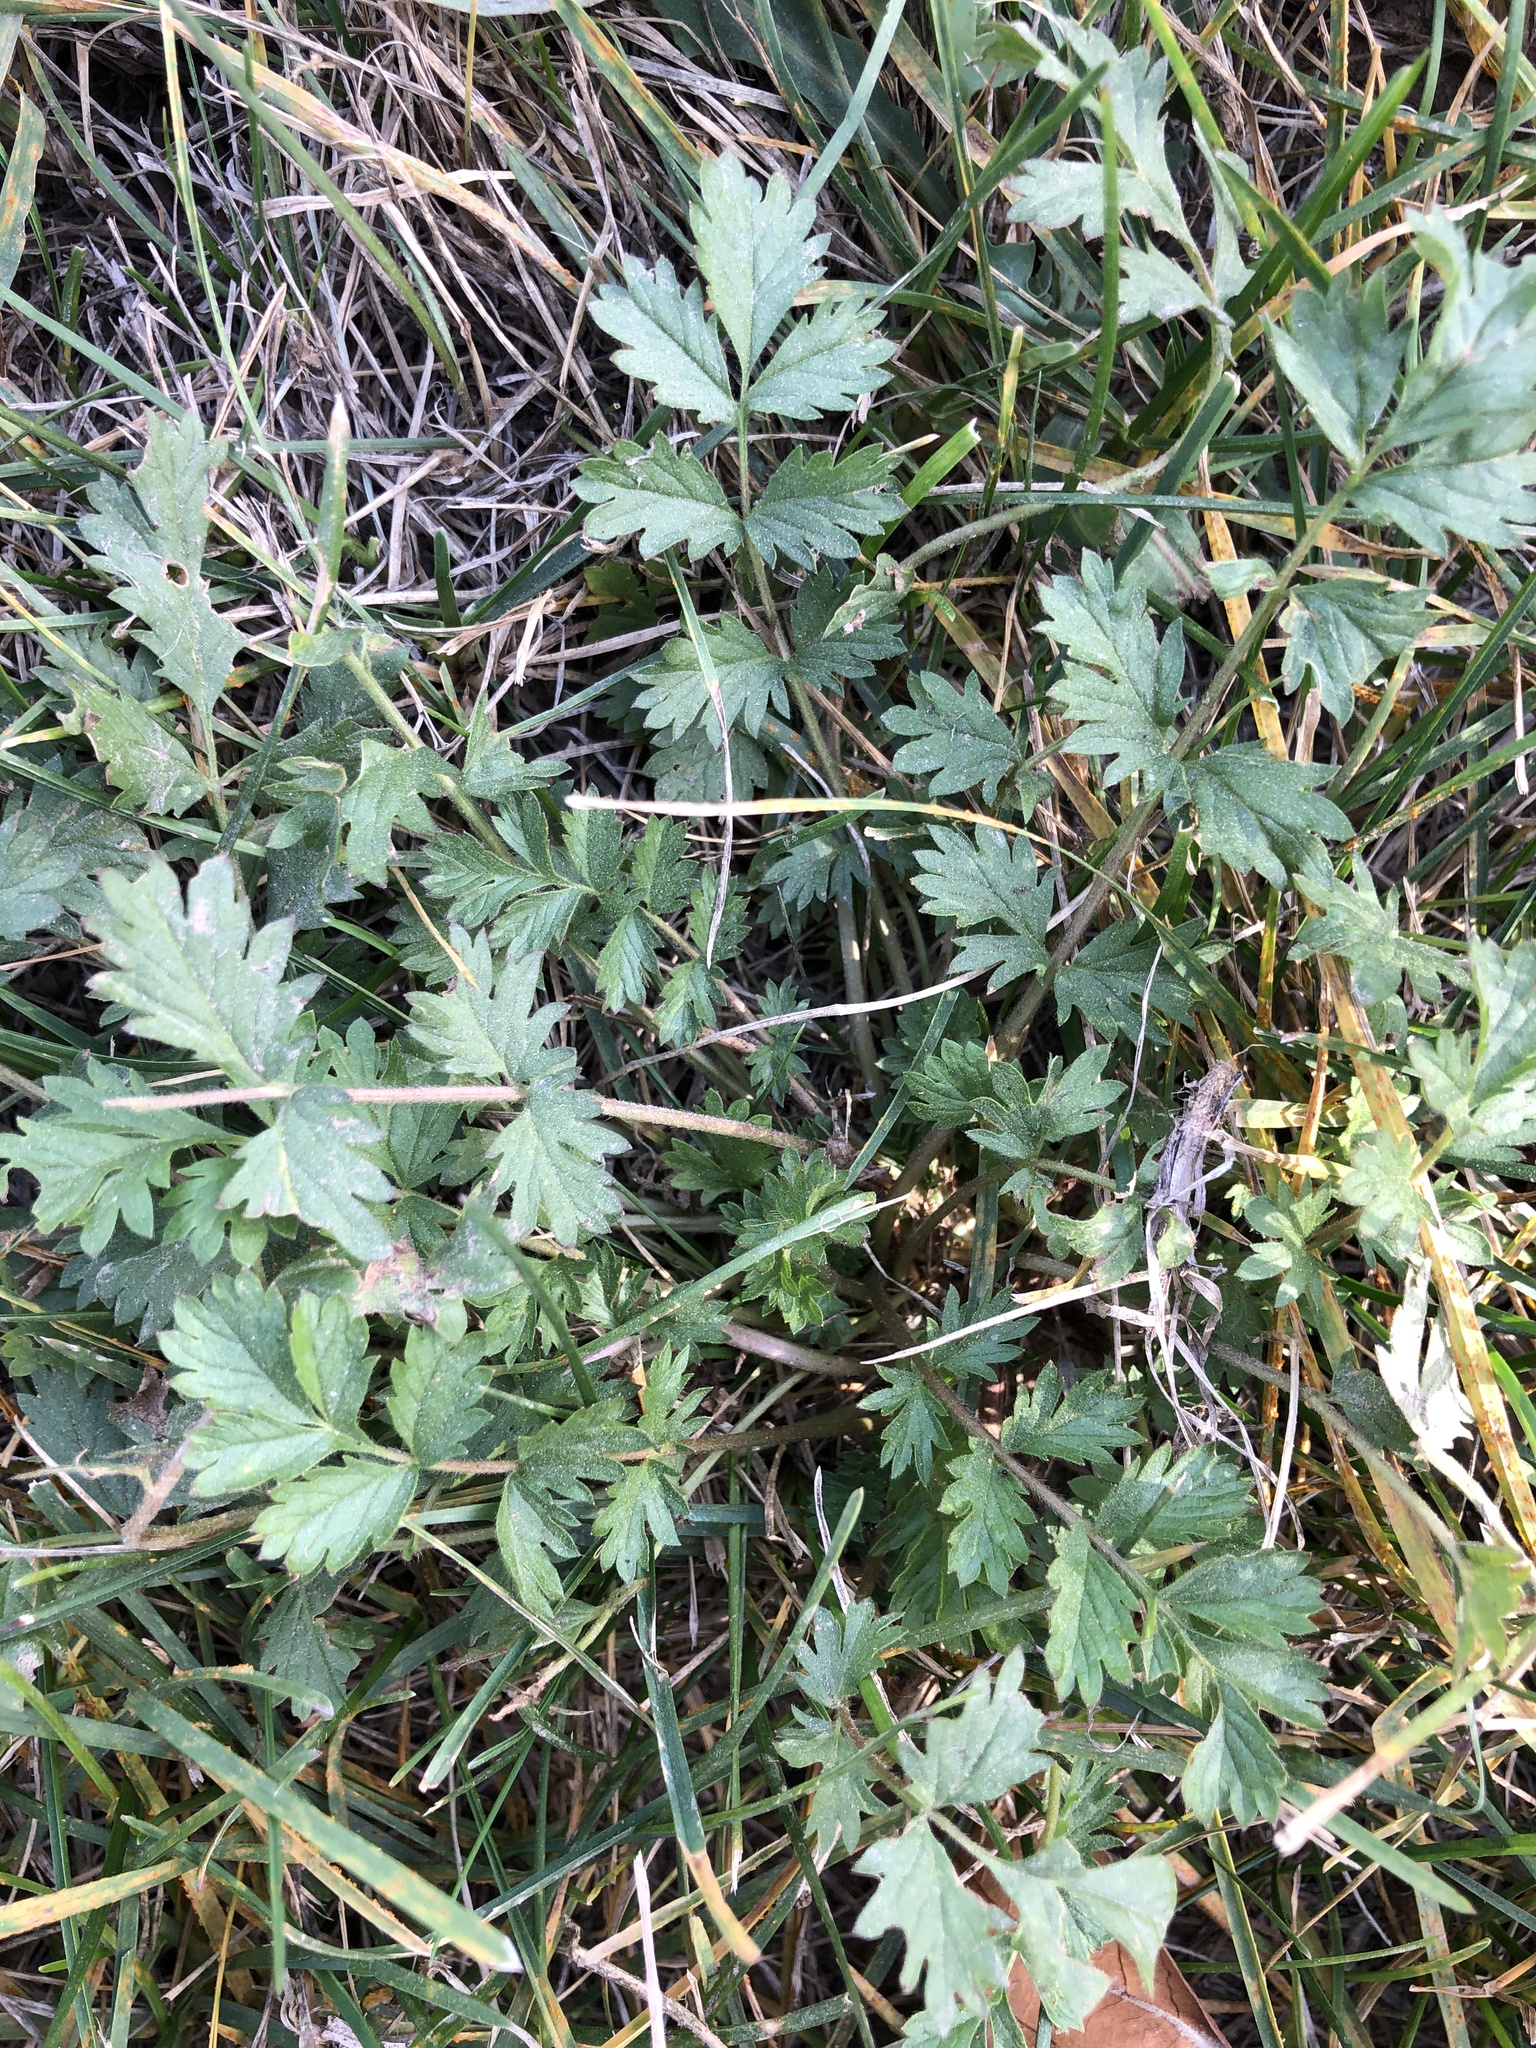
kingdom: Plantae
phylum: Tracheophyta
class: Magnoliopsida
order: Rosales
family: Rosaceae
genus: Potentilla
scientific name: Potentilla supina
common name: Prostrate cinquefoil
